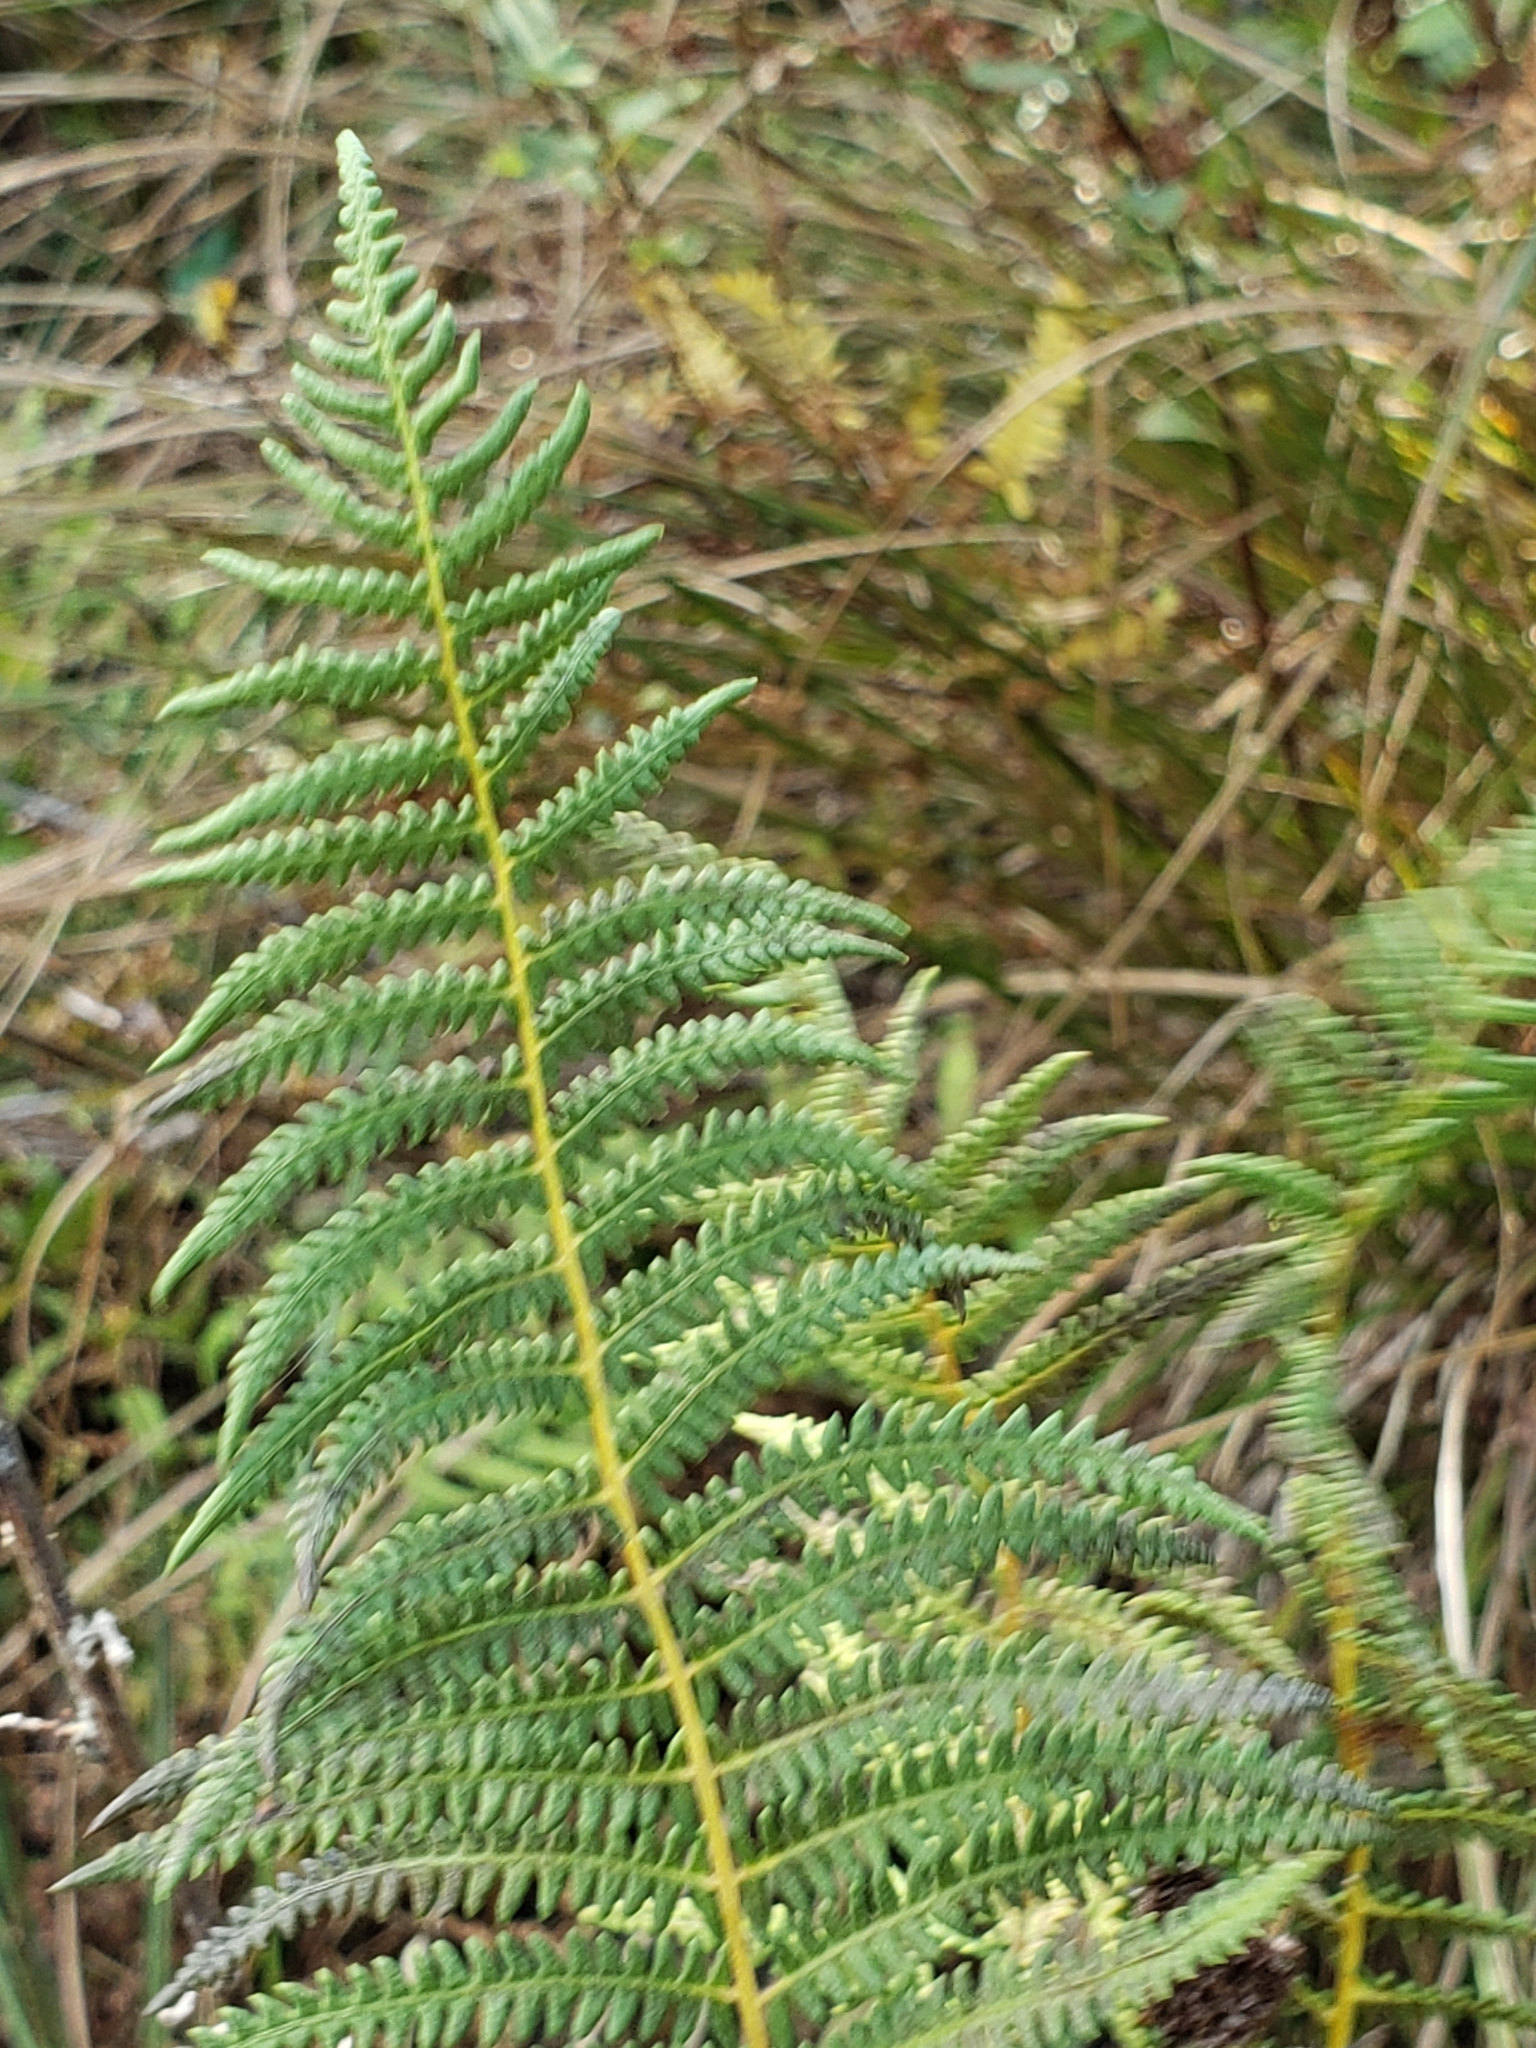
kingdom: Plantae
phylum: Tracheophyta
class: Polypodiopsida
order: Polypodiales
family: Thelypteridaceae
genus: Thelypteris
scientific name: Thelypteris palustris
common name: Marsh fern
